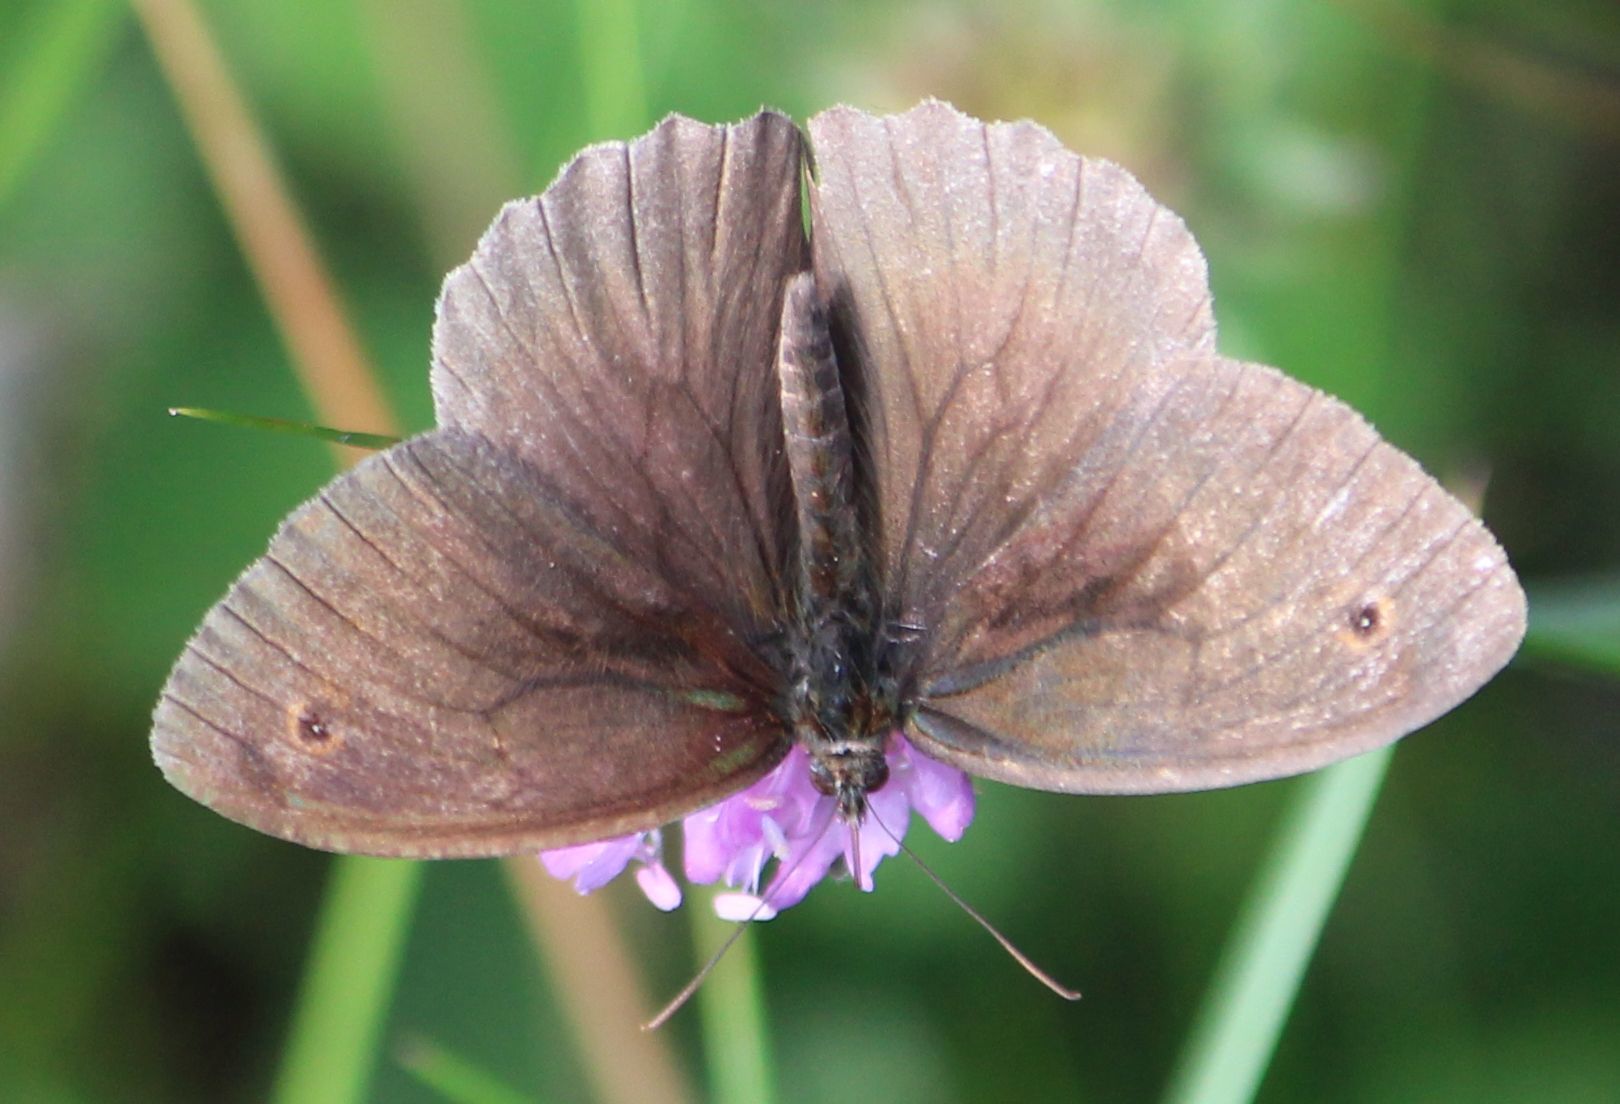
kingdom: Animalia
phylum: Arthropoda
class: Insecta
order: Lepidoptera
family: Nymphalidae
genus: Maniola
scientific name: Maniola jurtina
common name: Meadow brown
